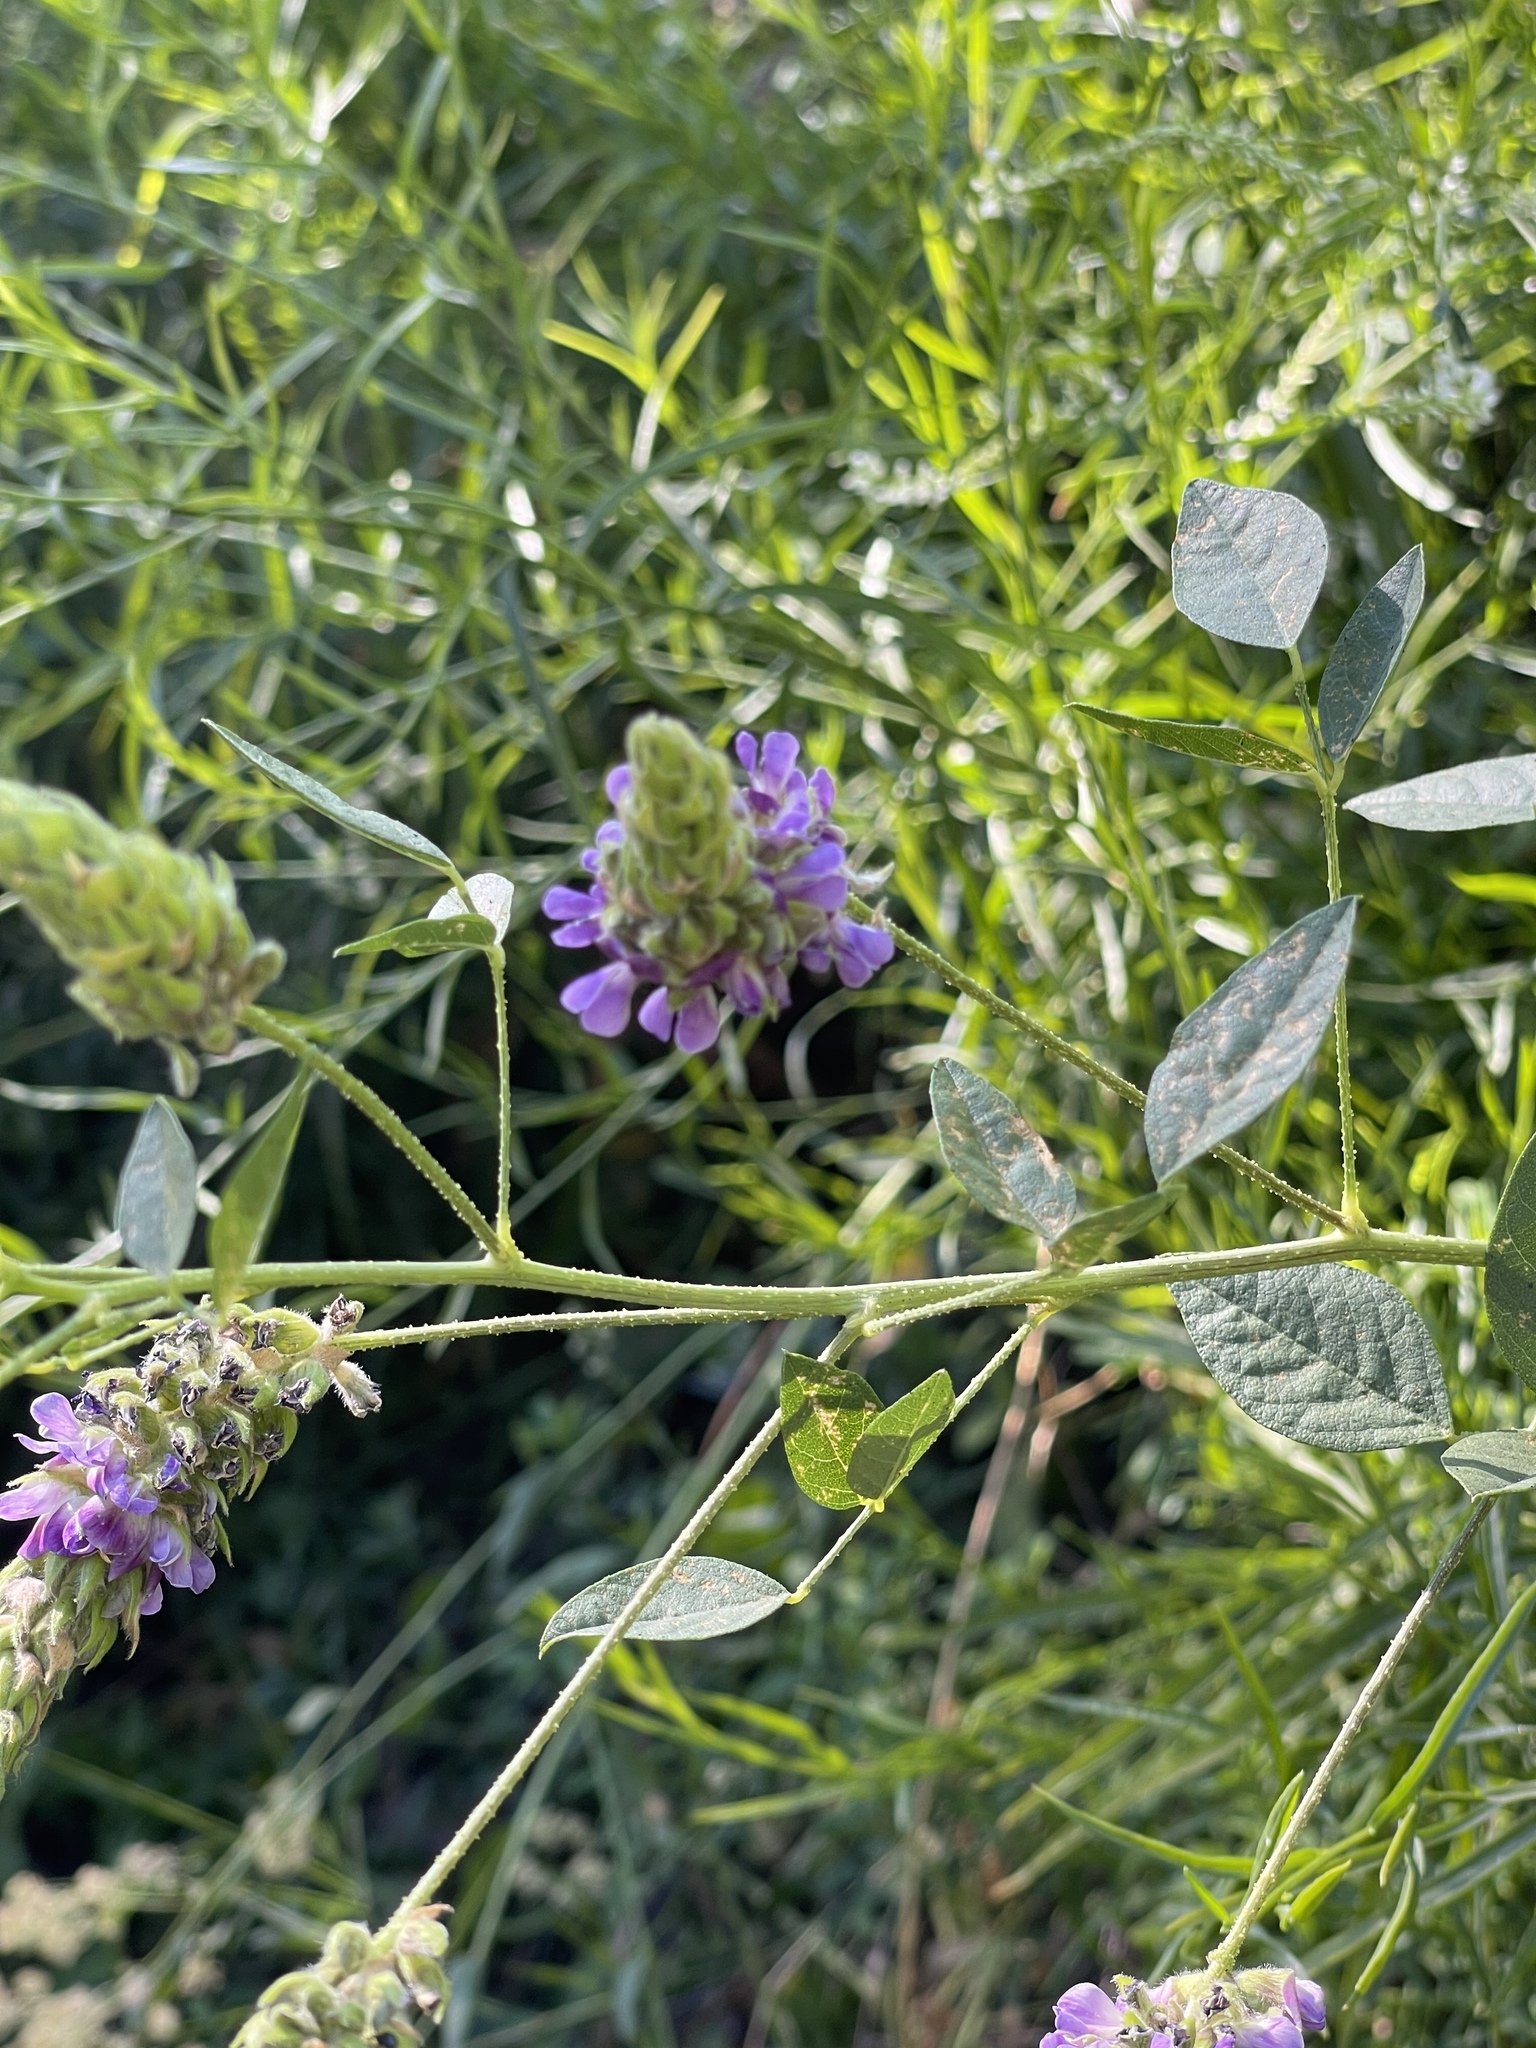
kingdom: Plantae
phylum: Tracheophyta
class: Magnoliopsida
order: Fabales
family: Fabaceae
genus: Hoita
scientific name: Hoita macrostachya
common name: Leatherroot
